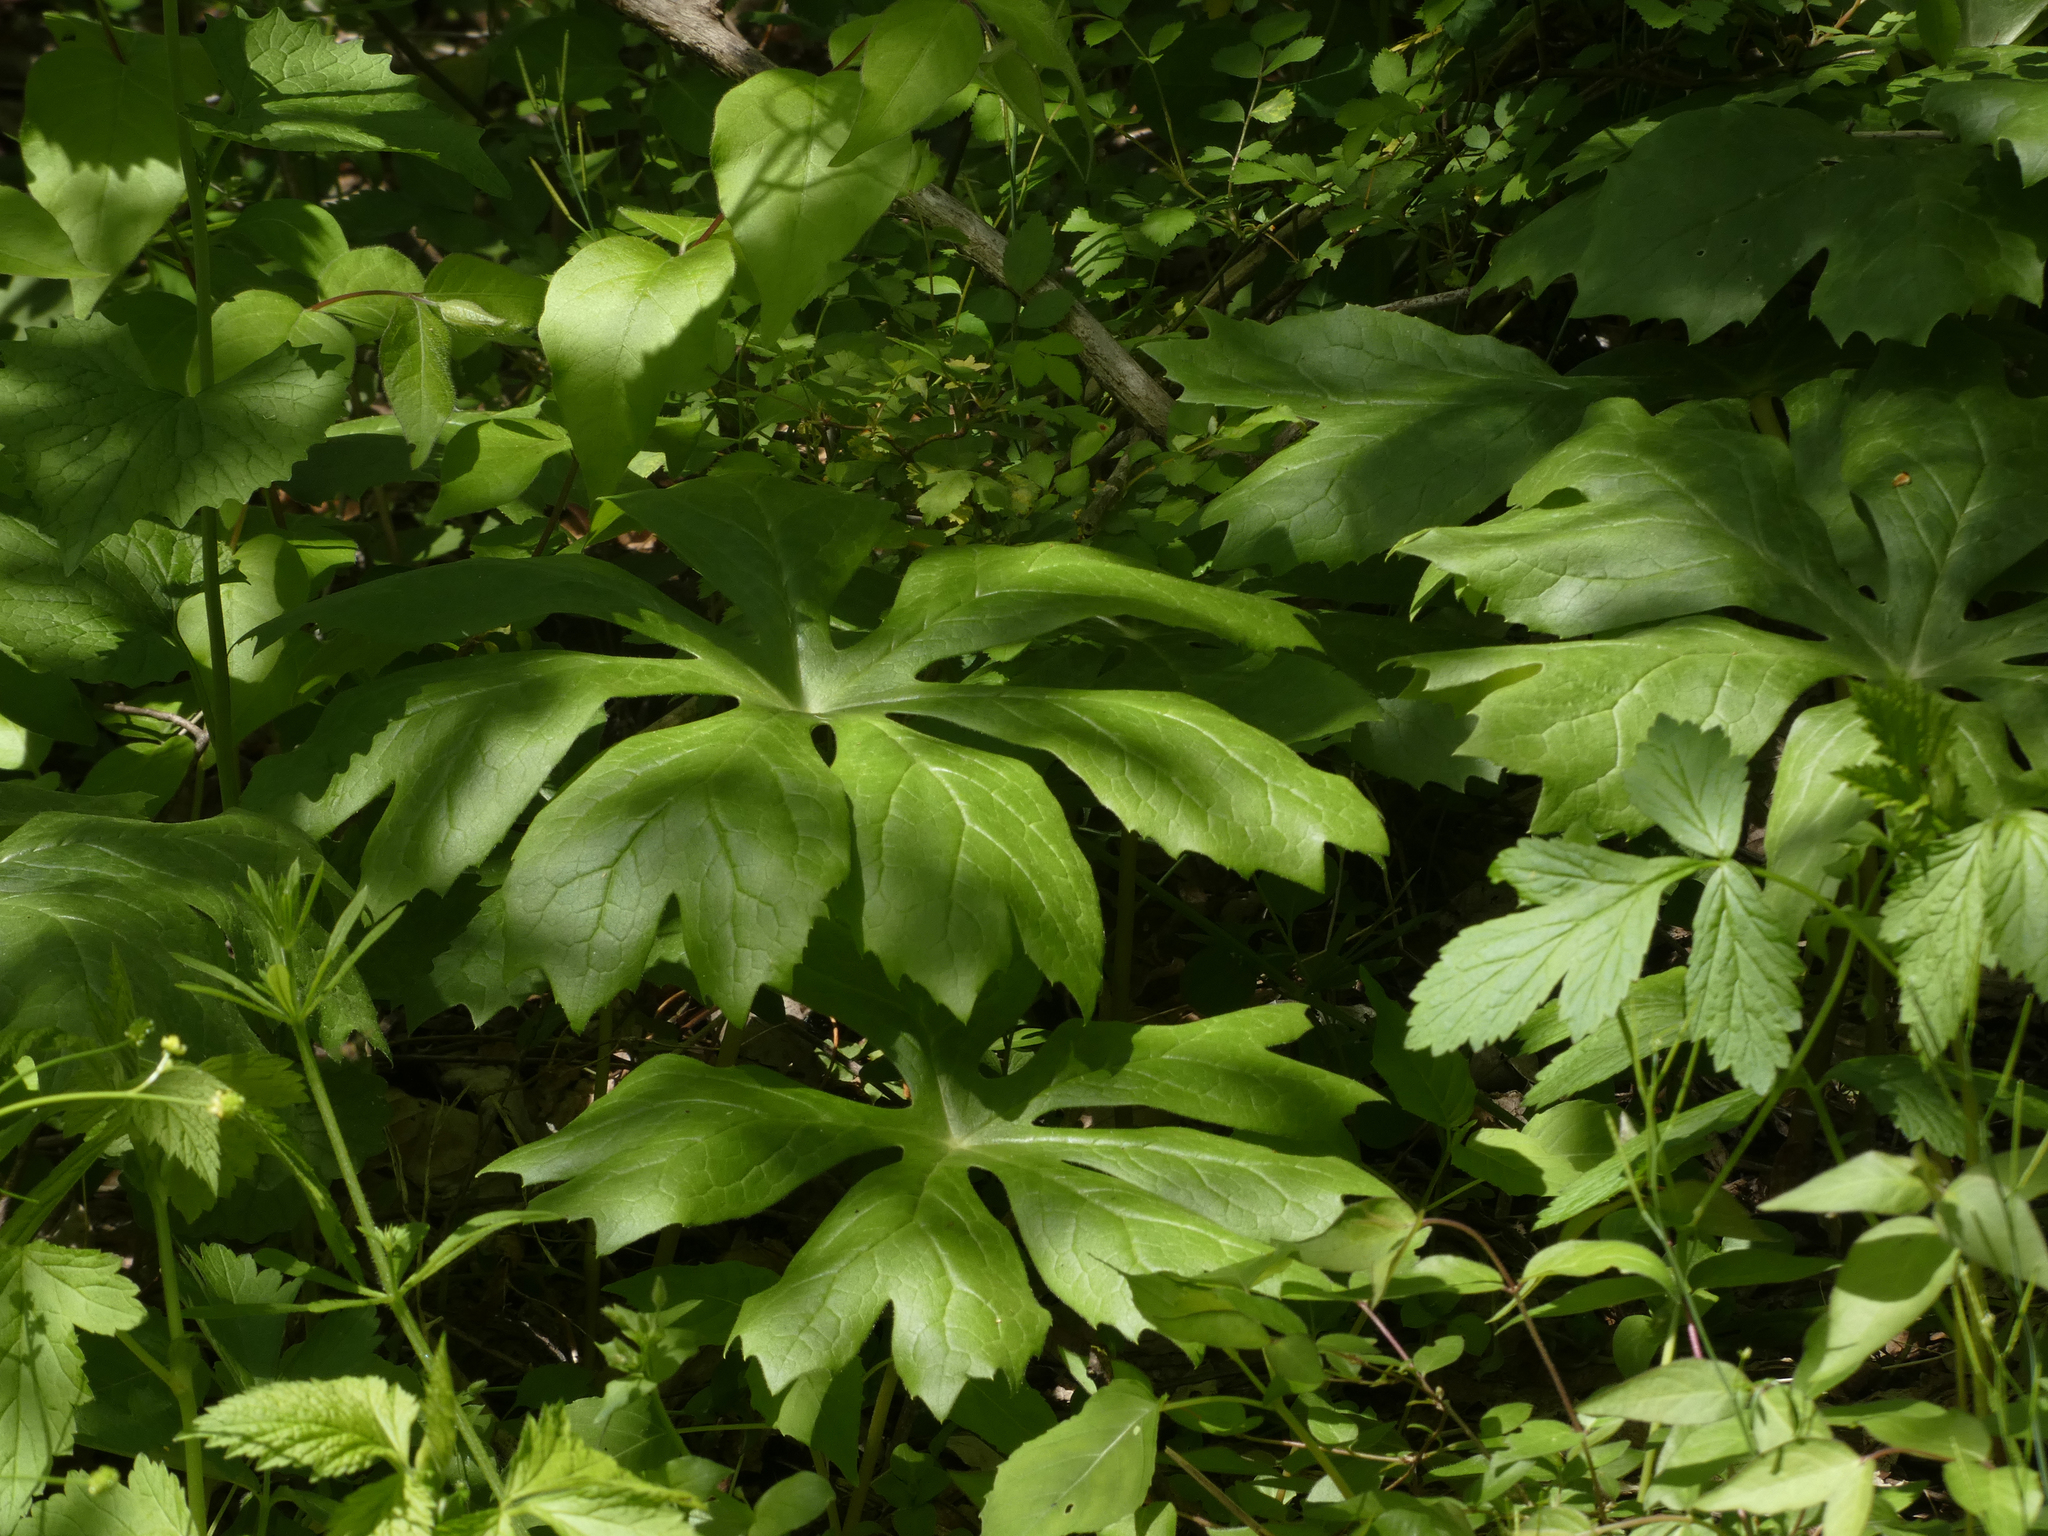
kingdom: Plantae
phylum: Tracheophyta
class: Magnoliopsida
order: Ranunculales
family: Berberidaceae
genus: Podophyllum
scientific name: Podophyllum peltatum
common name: Wild mandrake
